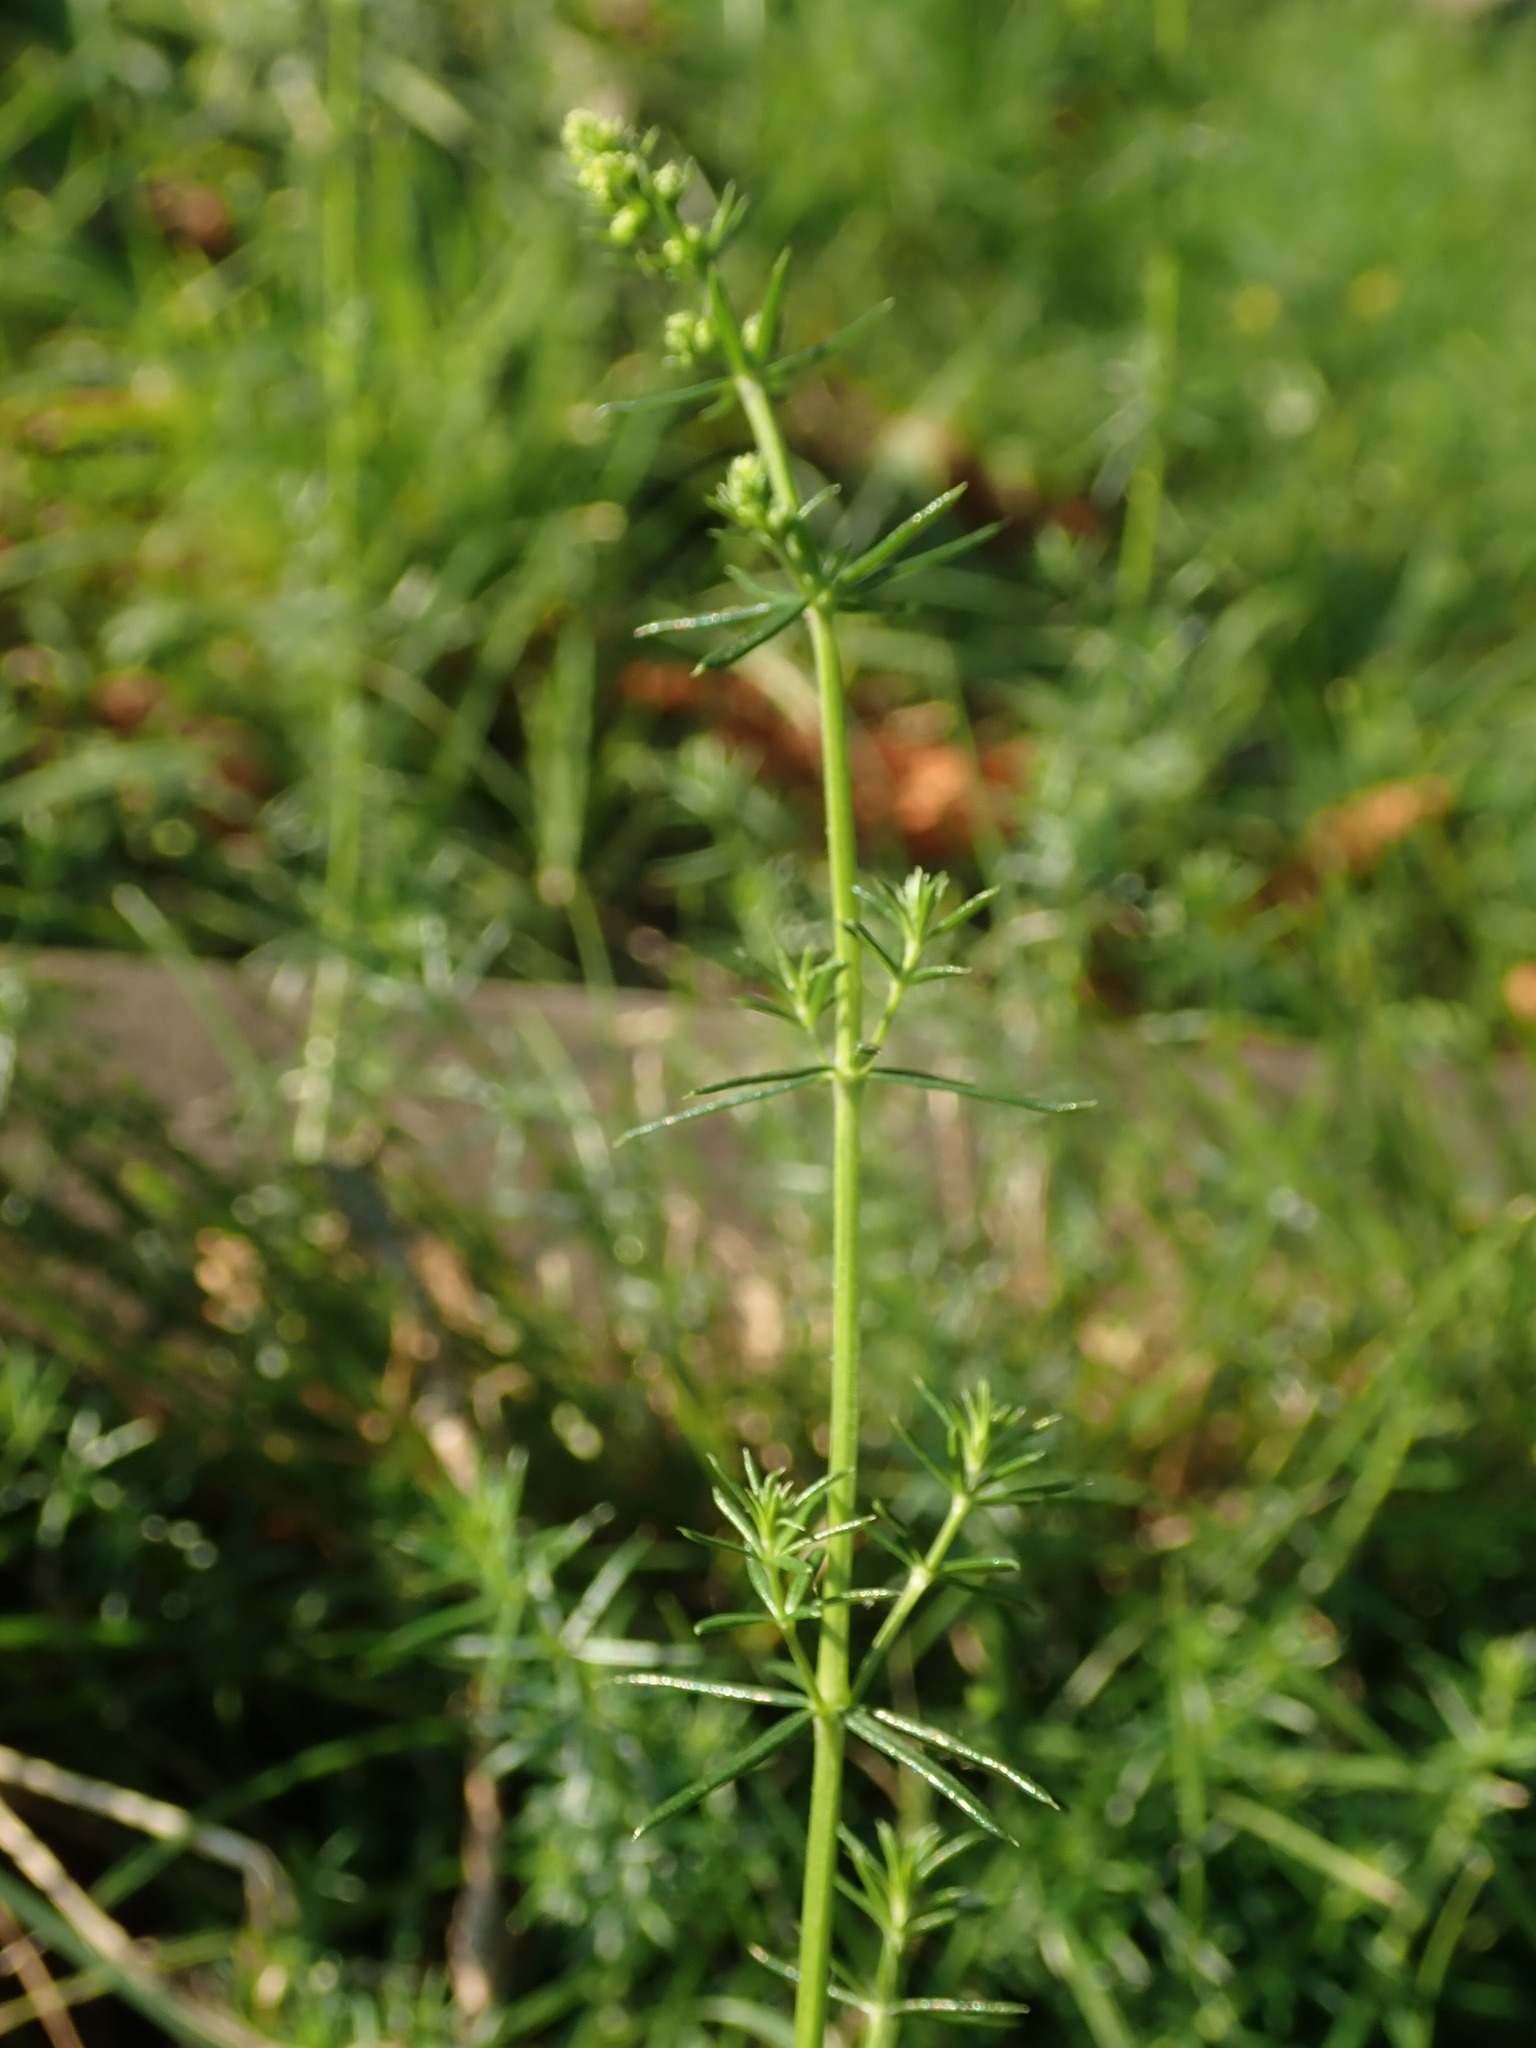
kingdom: Plantae
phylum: Tracheophyta
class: Magnoliopsida
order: Gentianales
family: Rubiaceae
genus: Galium
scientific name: Galium verum
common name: Lady's bedstraw
